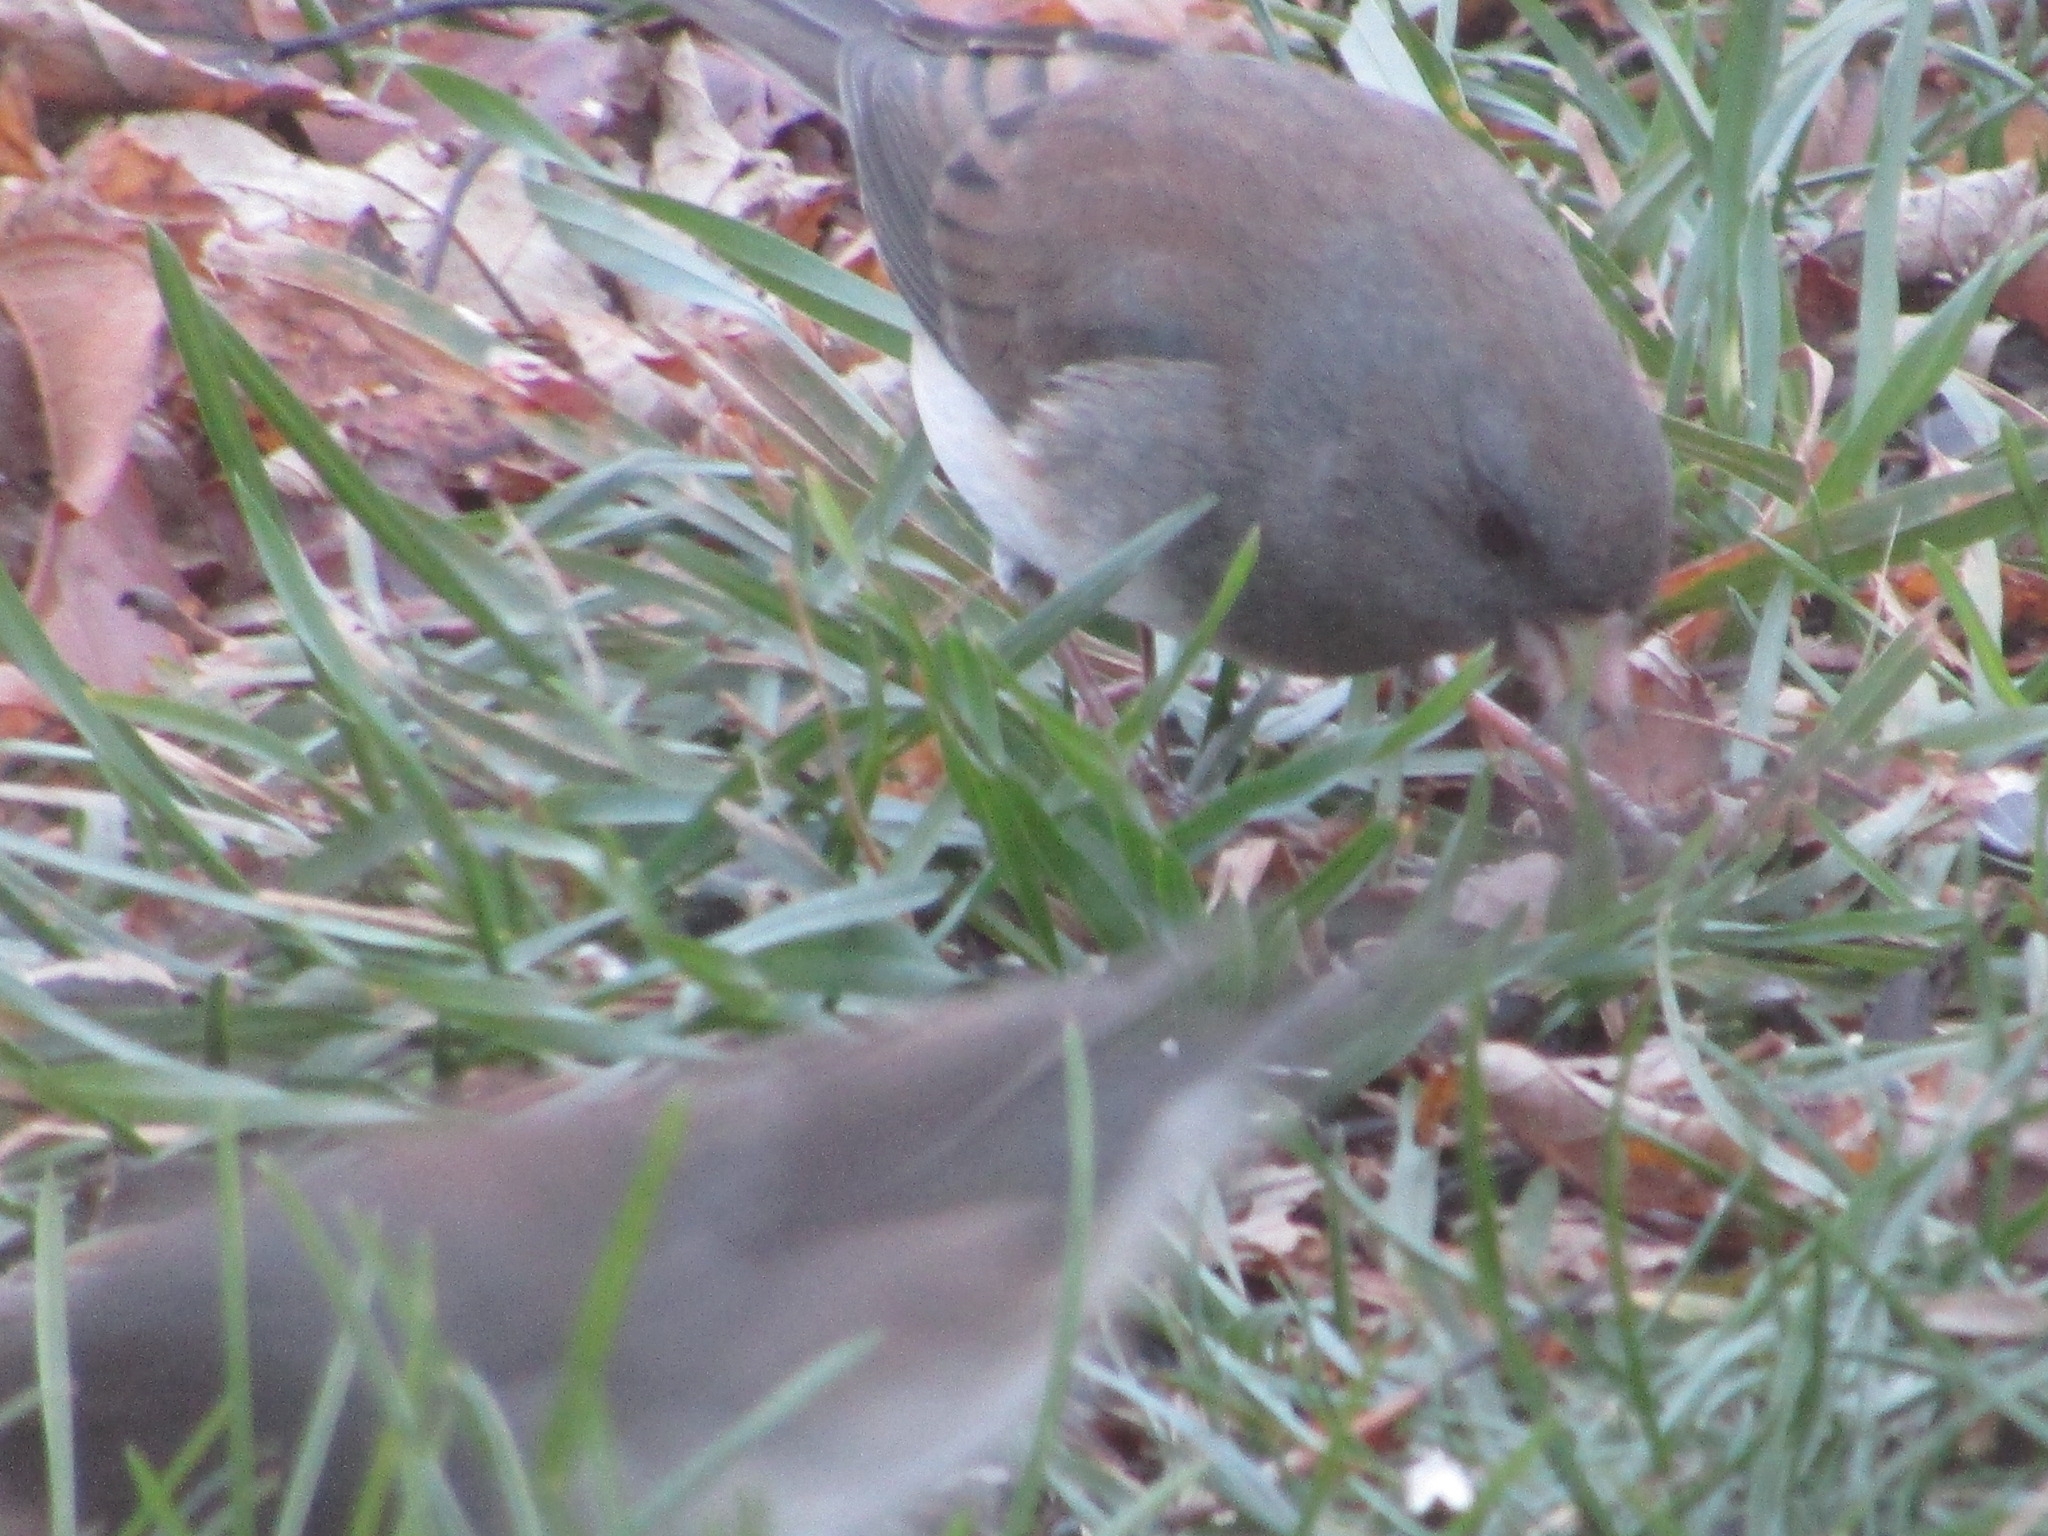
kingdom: Animalia
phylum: Chordata
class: Aves
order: Passeriformes
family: Passerellidae
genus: Junco
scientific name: Junco hyemalis
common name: Dark-eyed junco
